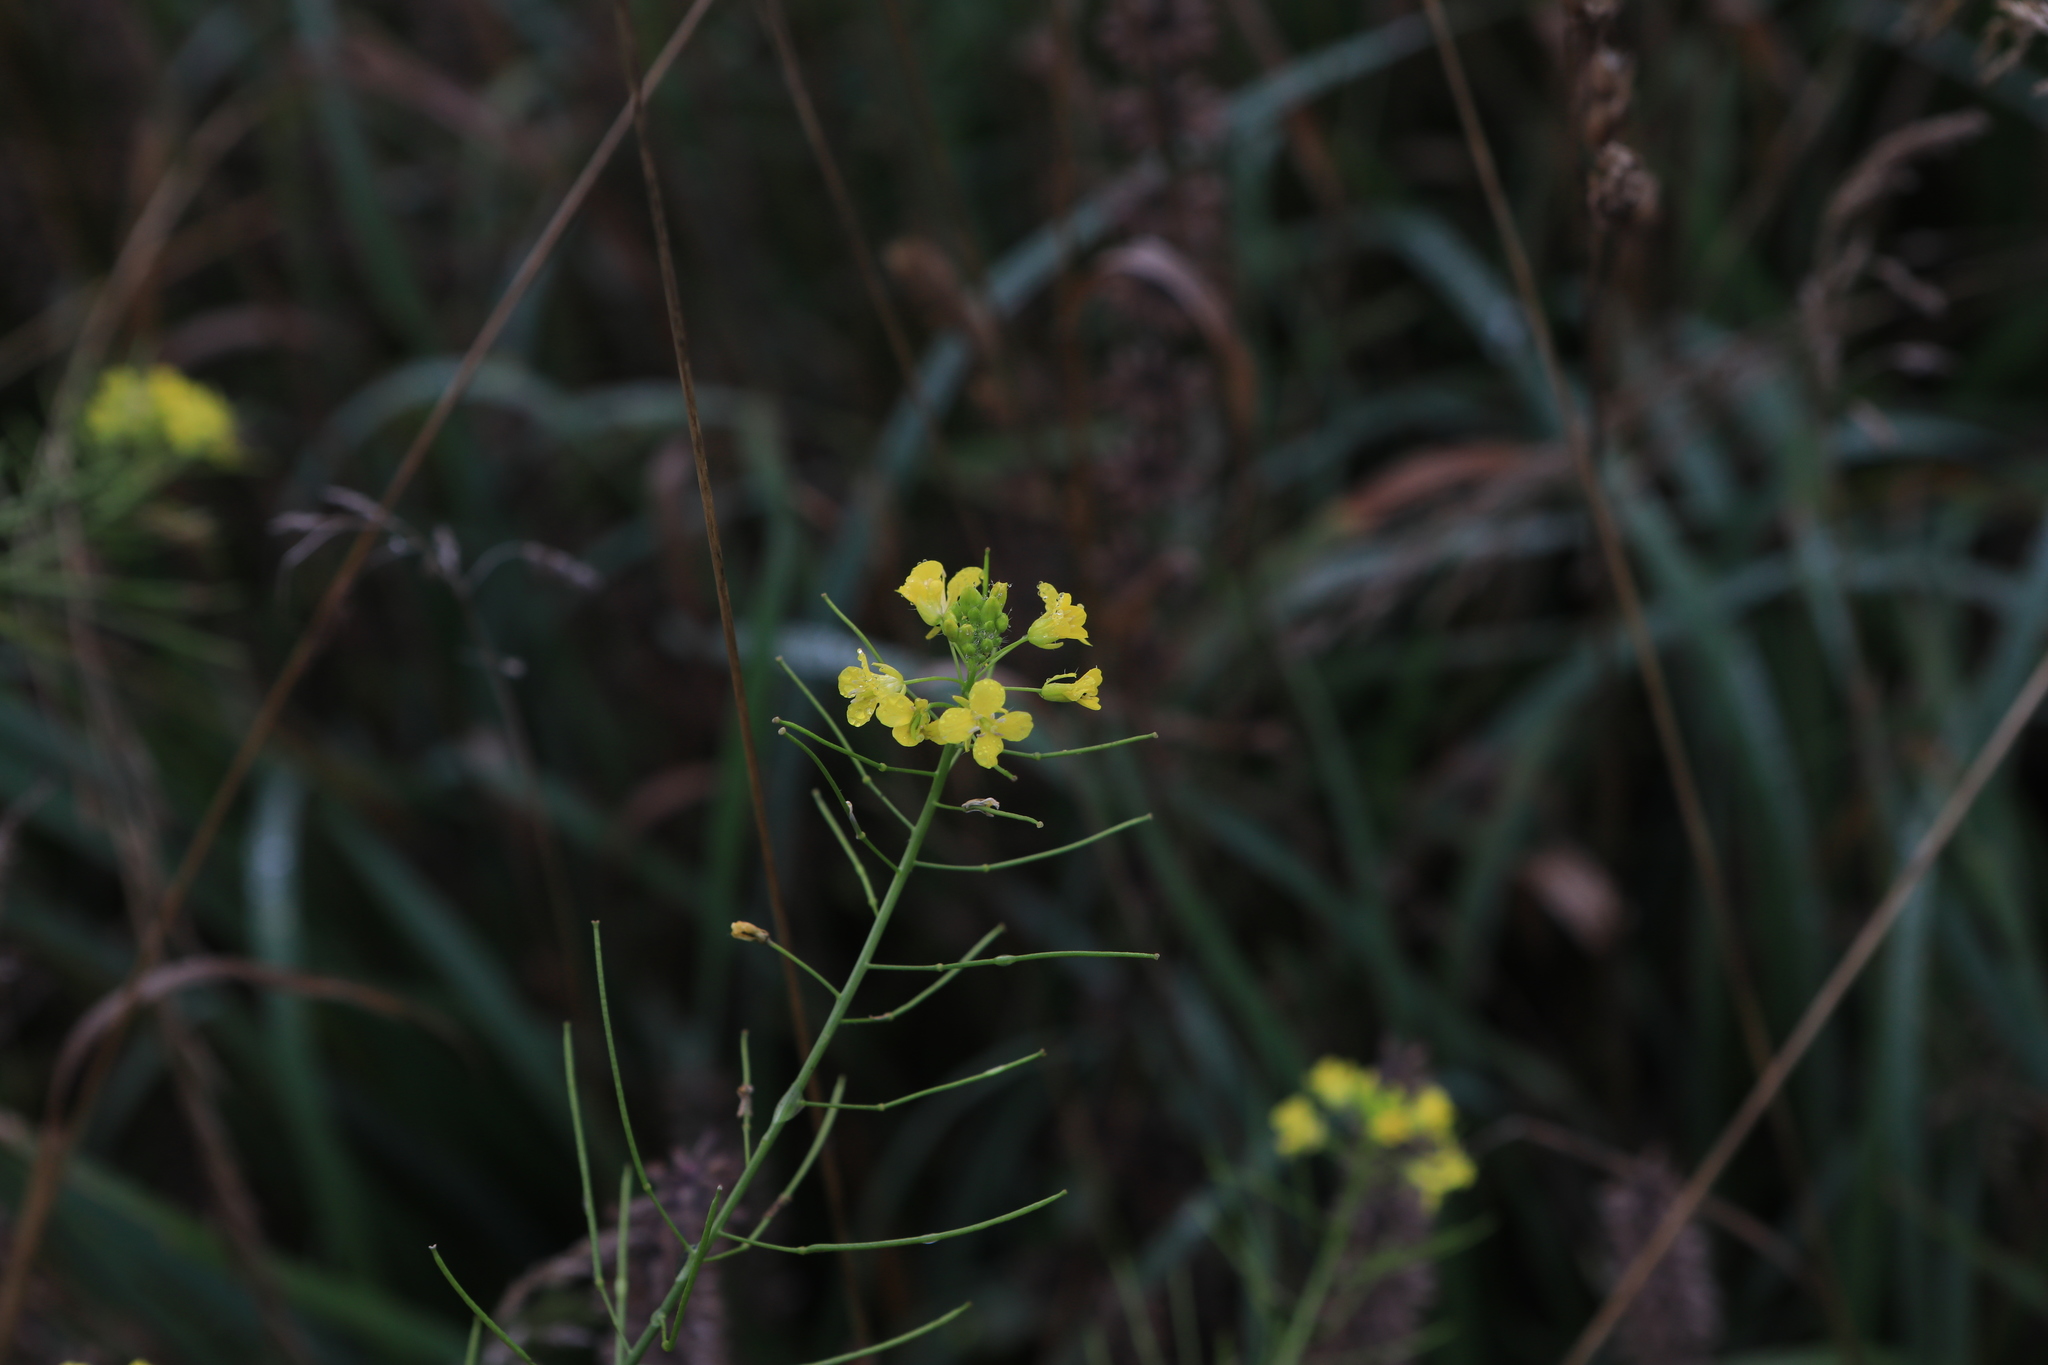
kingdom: Plantae
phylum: Tracheophyta
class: Magnoliopsida
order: Brassicales
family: Brassicaceae
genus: Sisymbrium
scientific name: Sisymbrium loeselii
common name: False london-rocket
